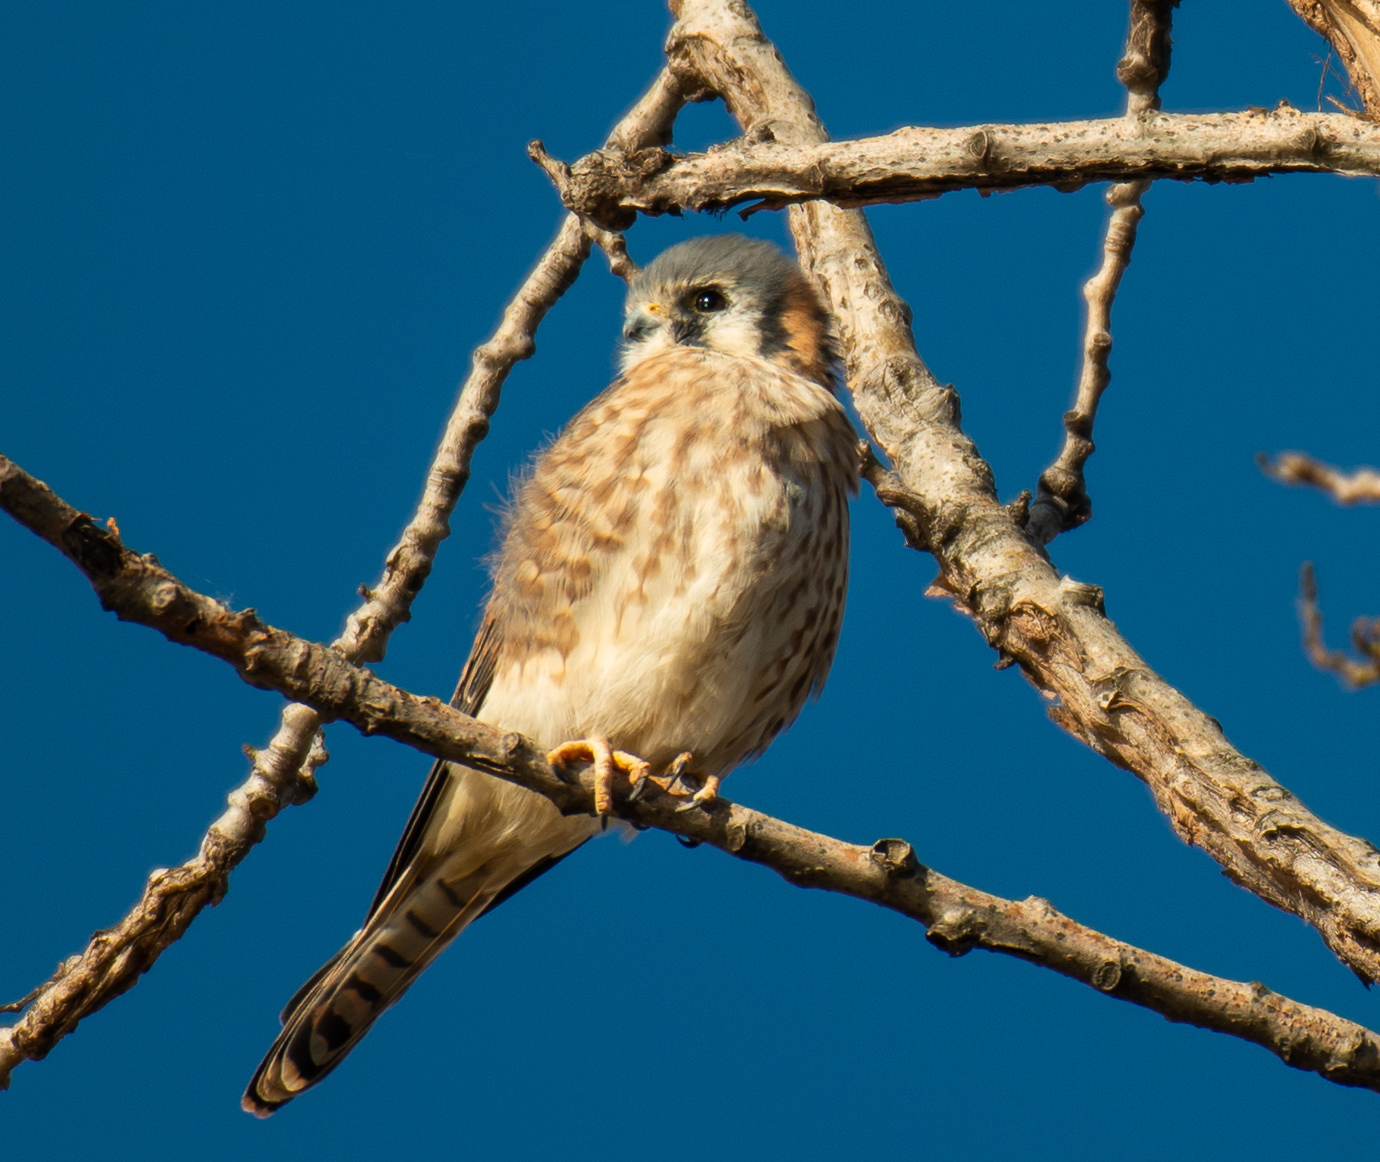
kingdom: Animalia
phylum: Chordata
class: Aves
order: Falconiformes
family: Falconidae
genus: Falco
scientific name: Falco sparverius
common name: American kestrel
